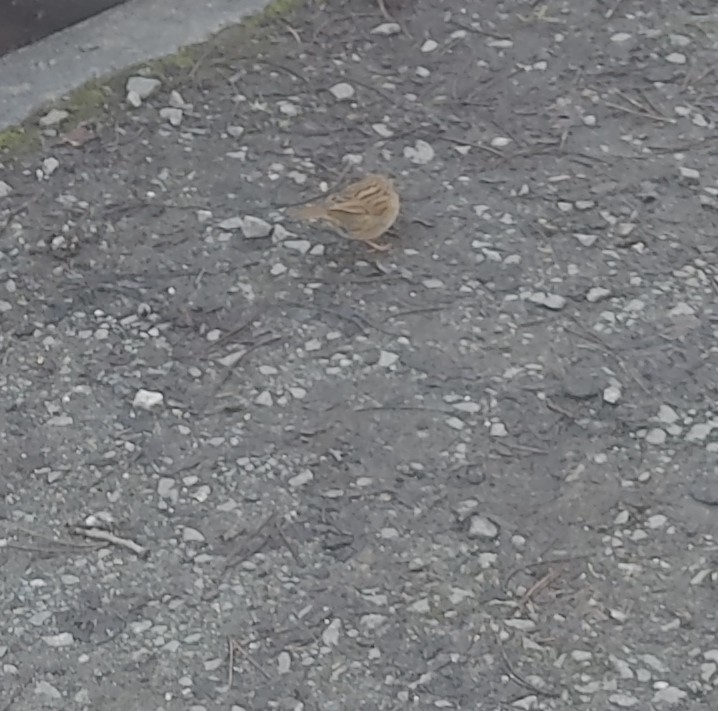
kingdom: Animalia
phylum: Chordata
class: Aves
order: Passeriformes
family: Prunellidae
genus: Prunella
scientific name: Prunella modularis
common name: Dunnock
